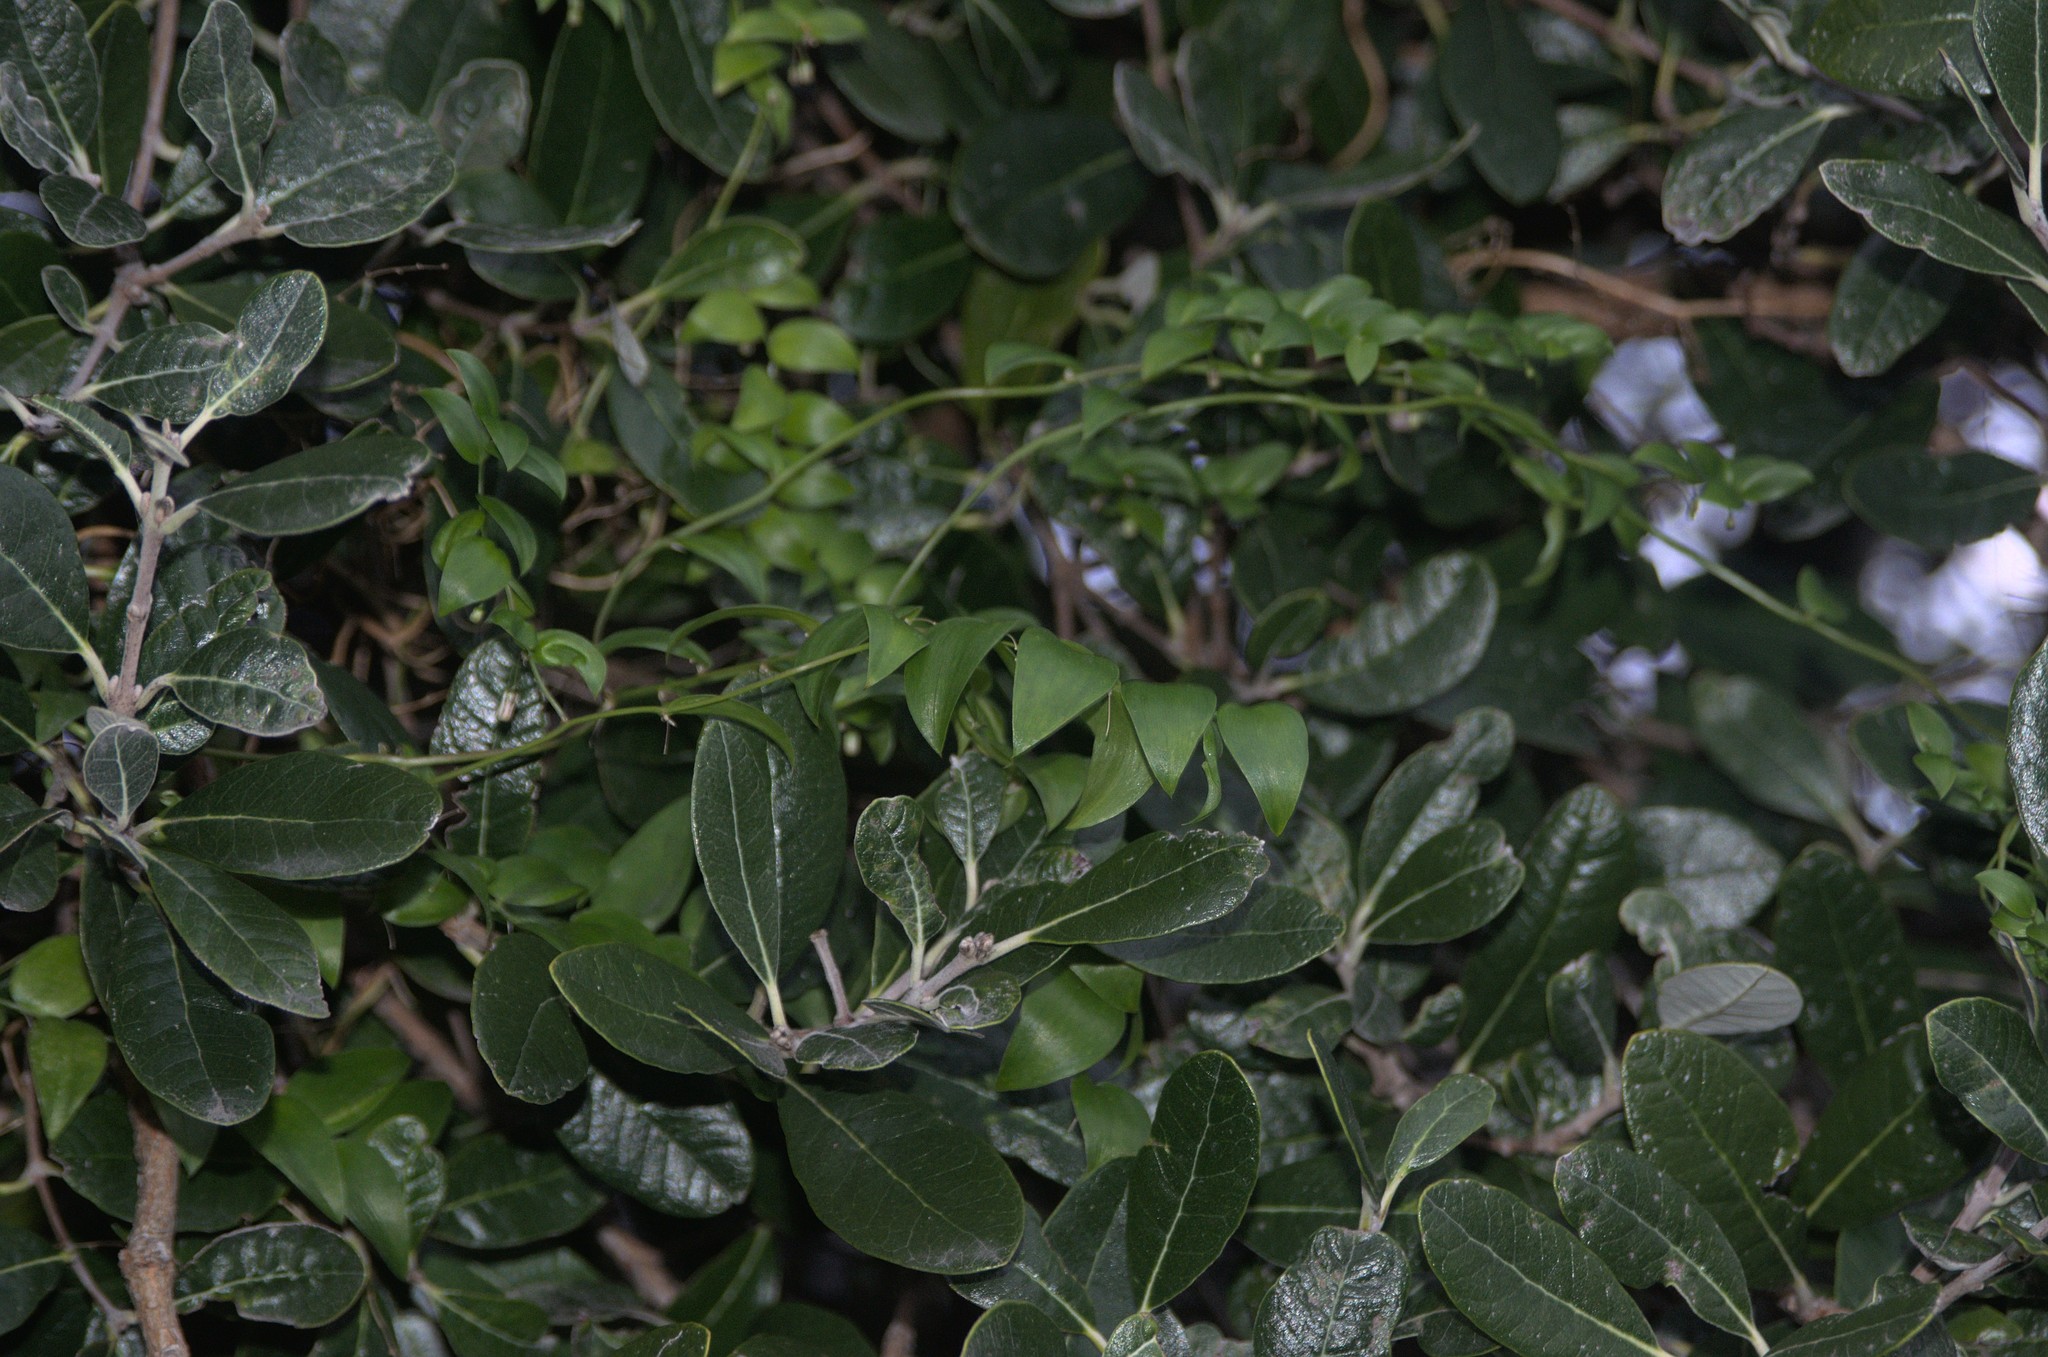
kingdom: Plantae
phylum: Tracheophyta
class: Liliopsida
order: Asparagales
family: Asparagaceae
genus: Asparagus
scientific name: Asparagus asparagoides
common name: African asparagus fern
